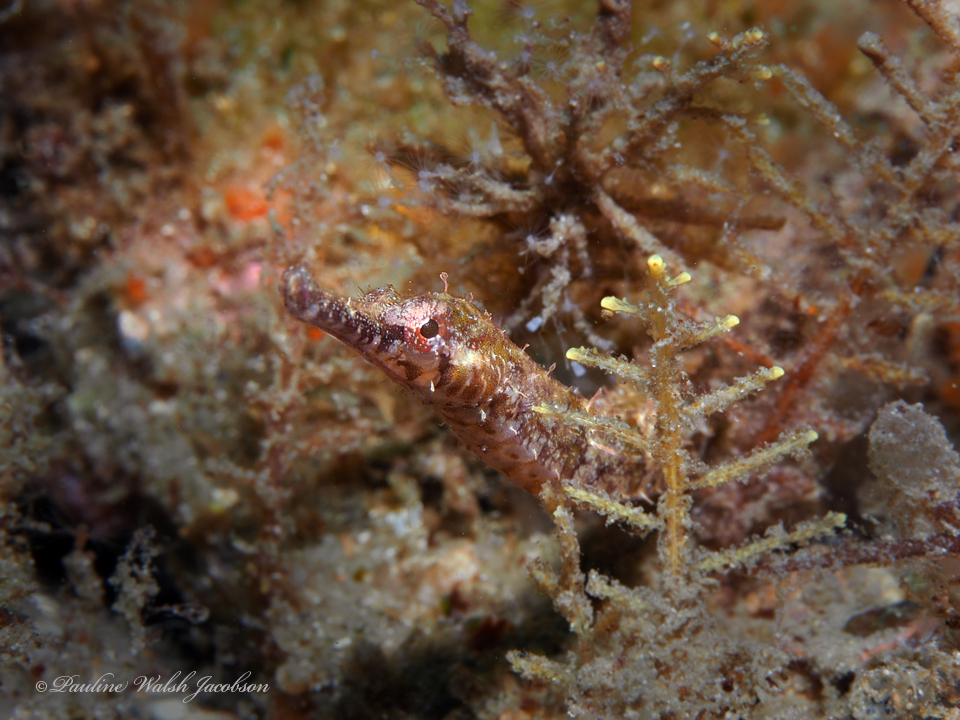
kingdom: Animalia
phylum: Chordata
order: Syngnathiformes
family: Syngnathidae
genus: Cosmocampus
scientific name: Cosmocampus elucens
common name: Poey's pipefish
